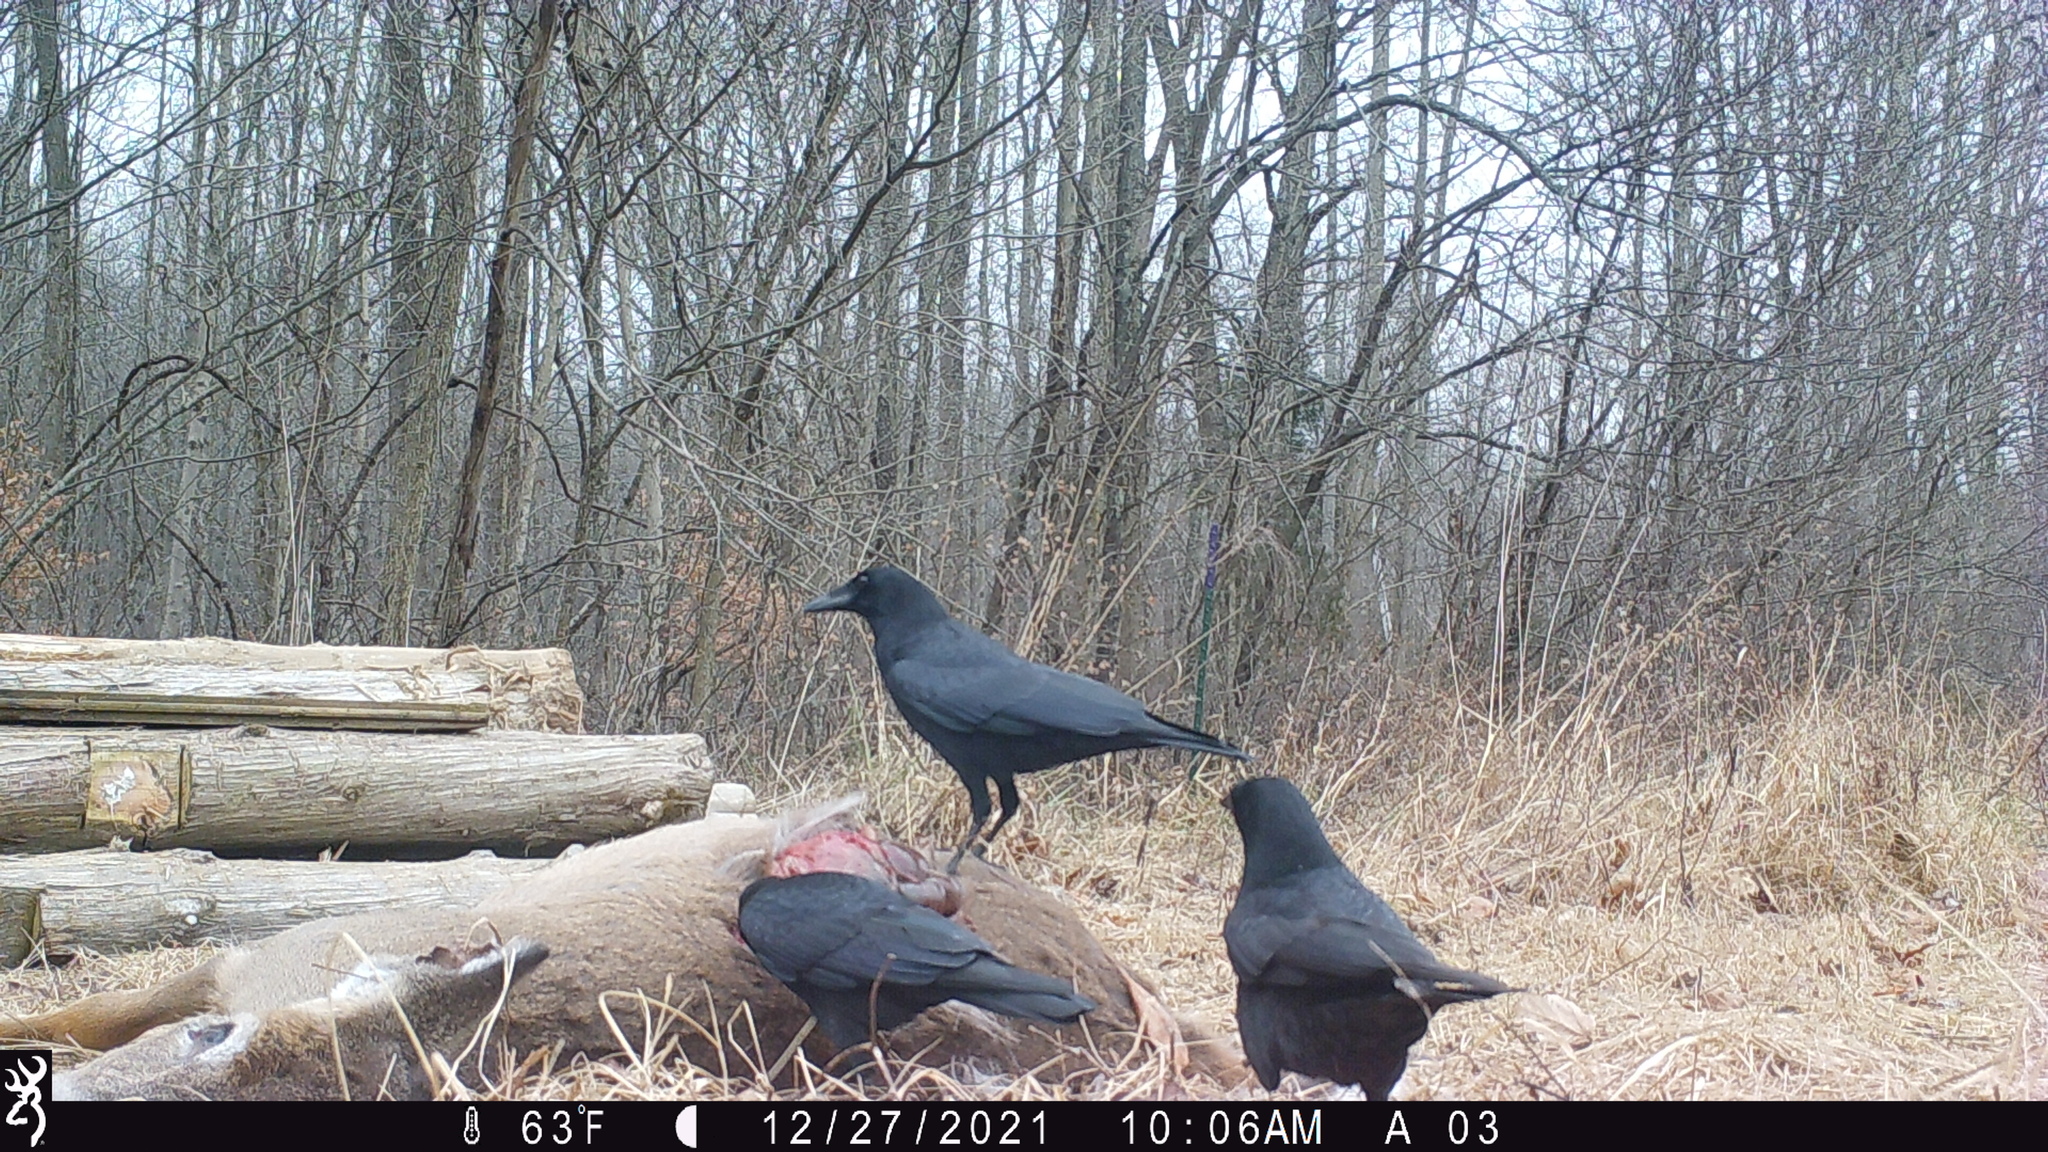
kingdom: Animalia
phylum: Chordata
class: Aves
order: Passeriformes
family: Corvidae
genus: Corvus
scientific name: Corvus brachyrhynchos
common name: American crow
